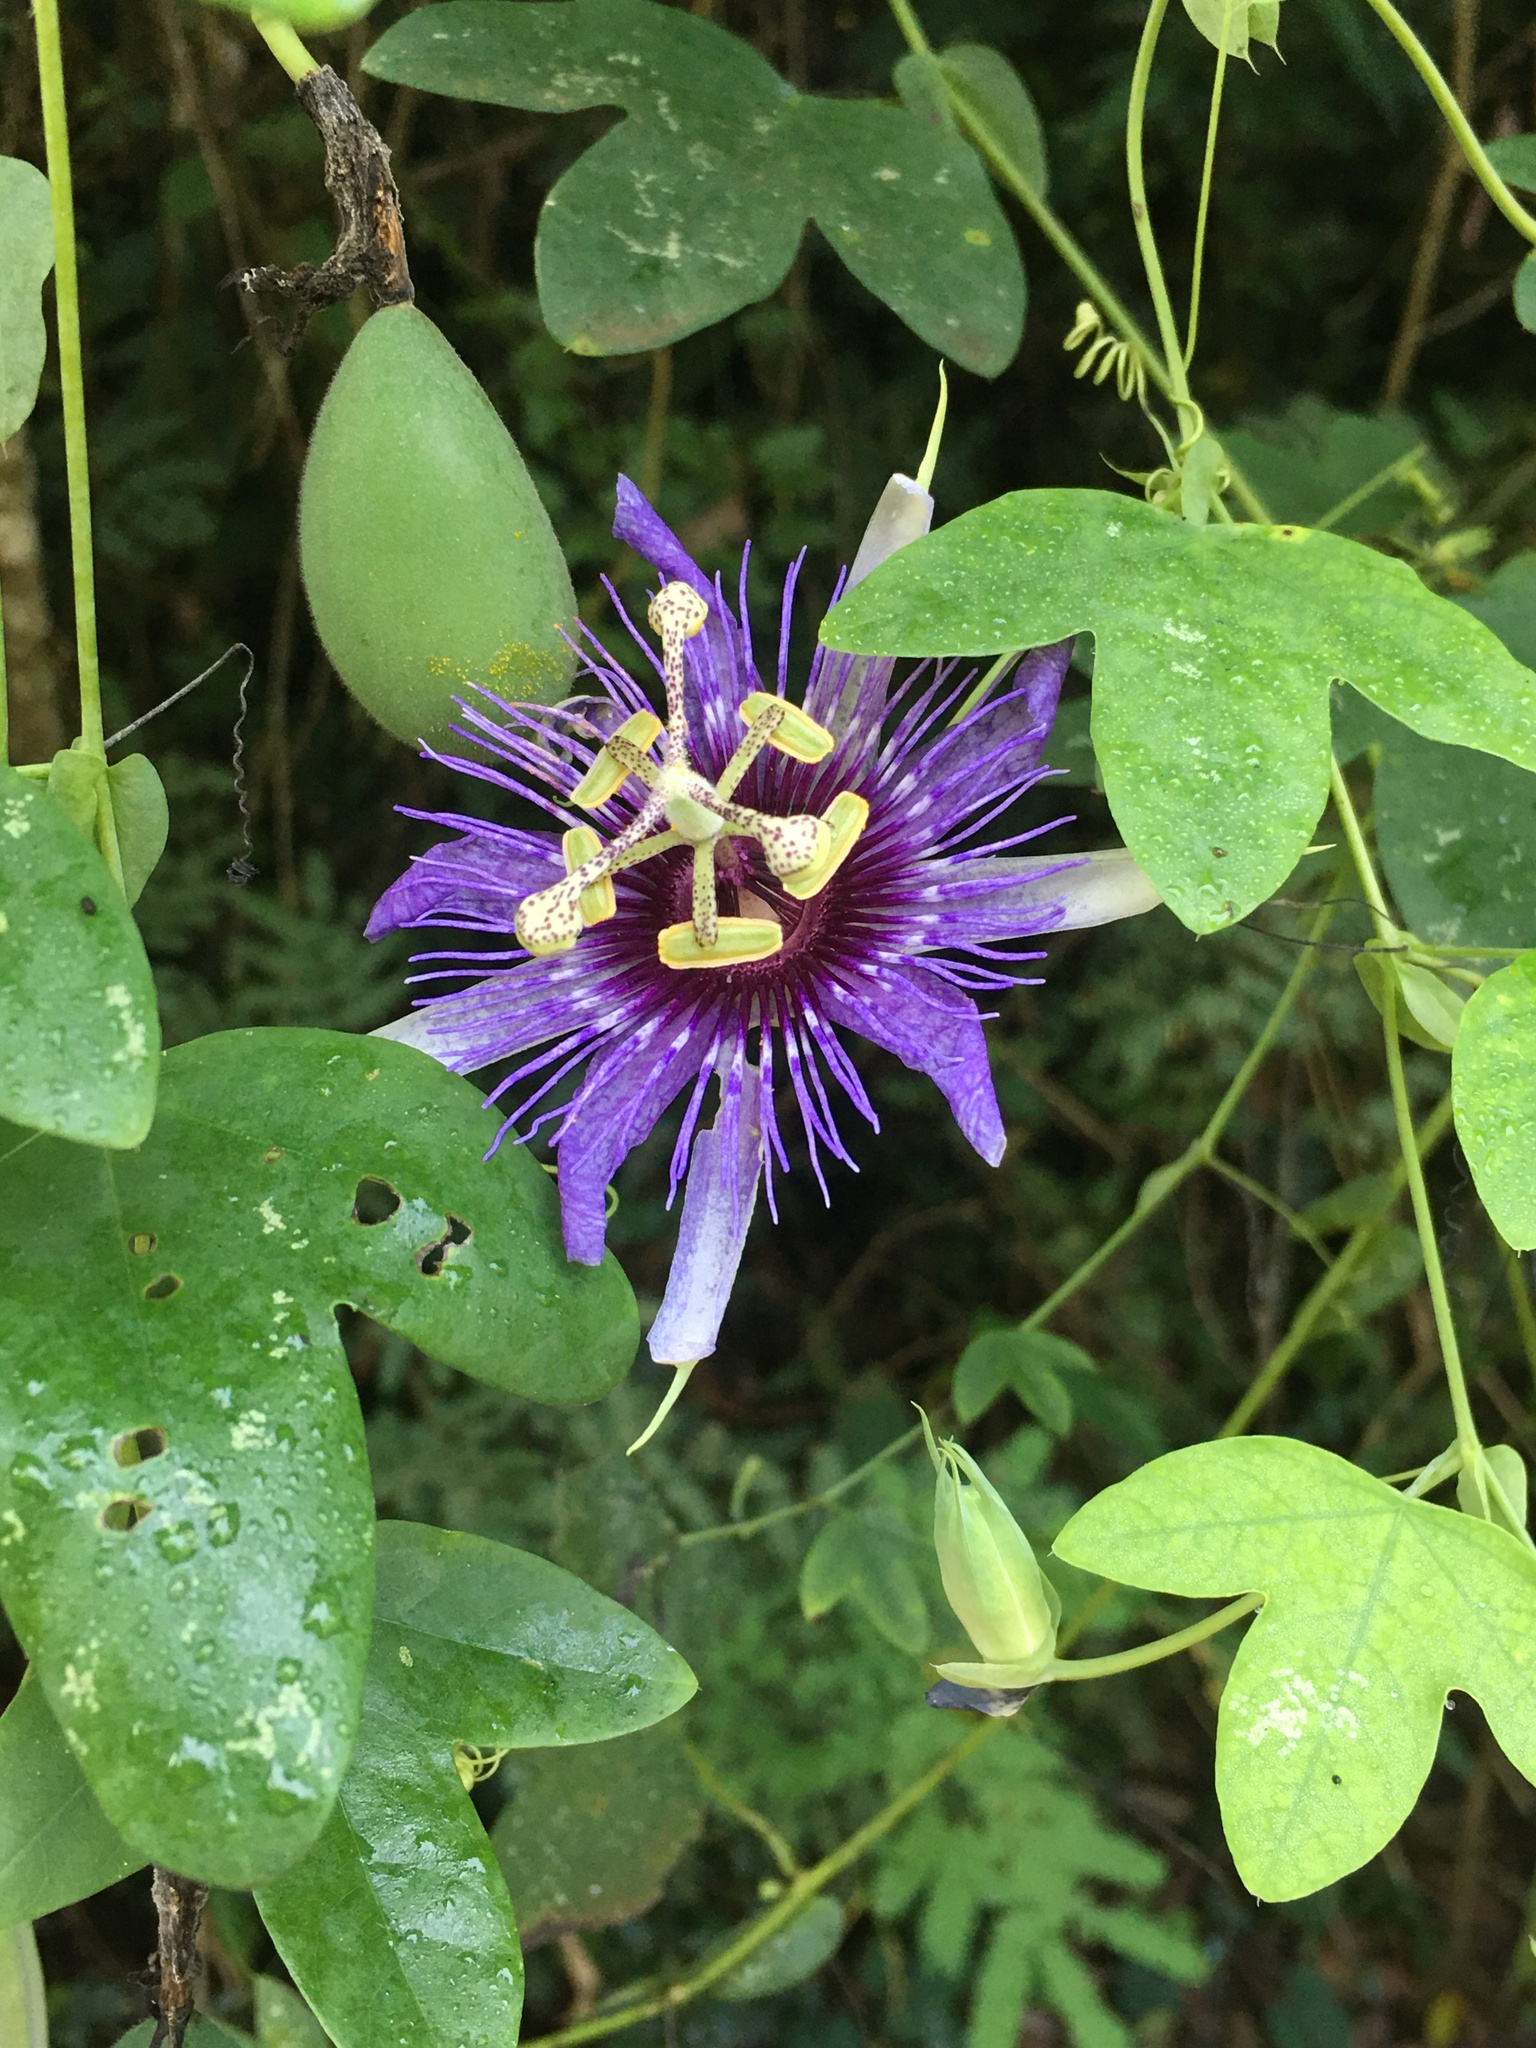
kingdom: Plantae
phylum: Tracheophyta
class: Magnoliopsida
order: Malpighiales
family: Passifloraceae
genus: Passiflora
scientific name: Passiflora amethystina
